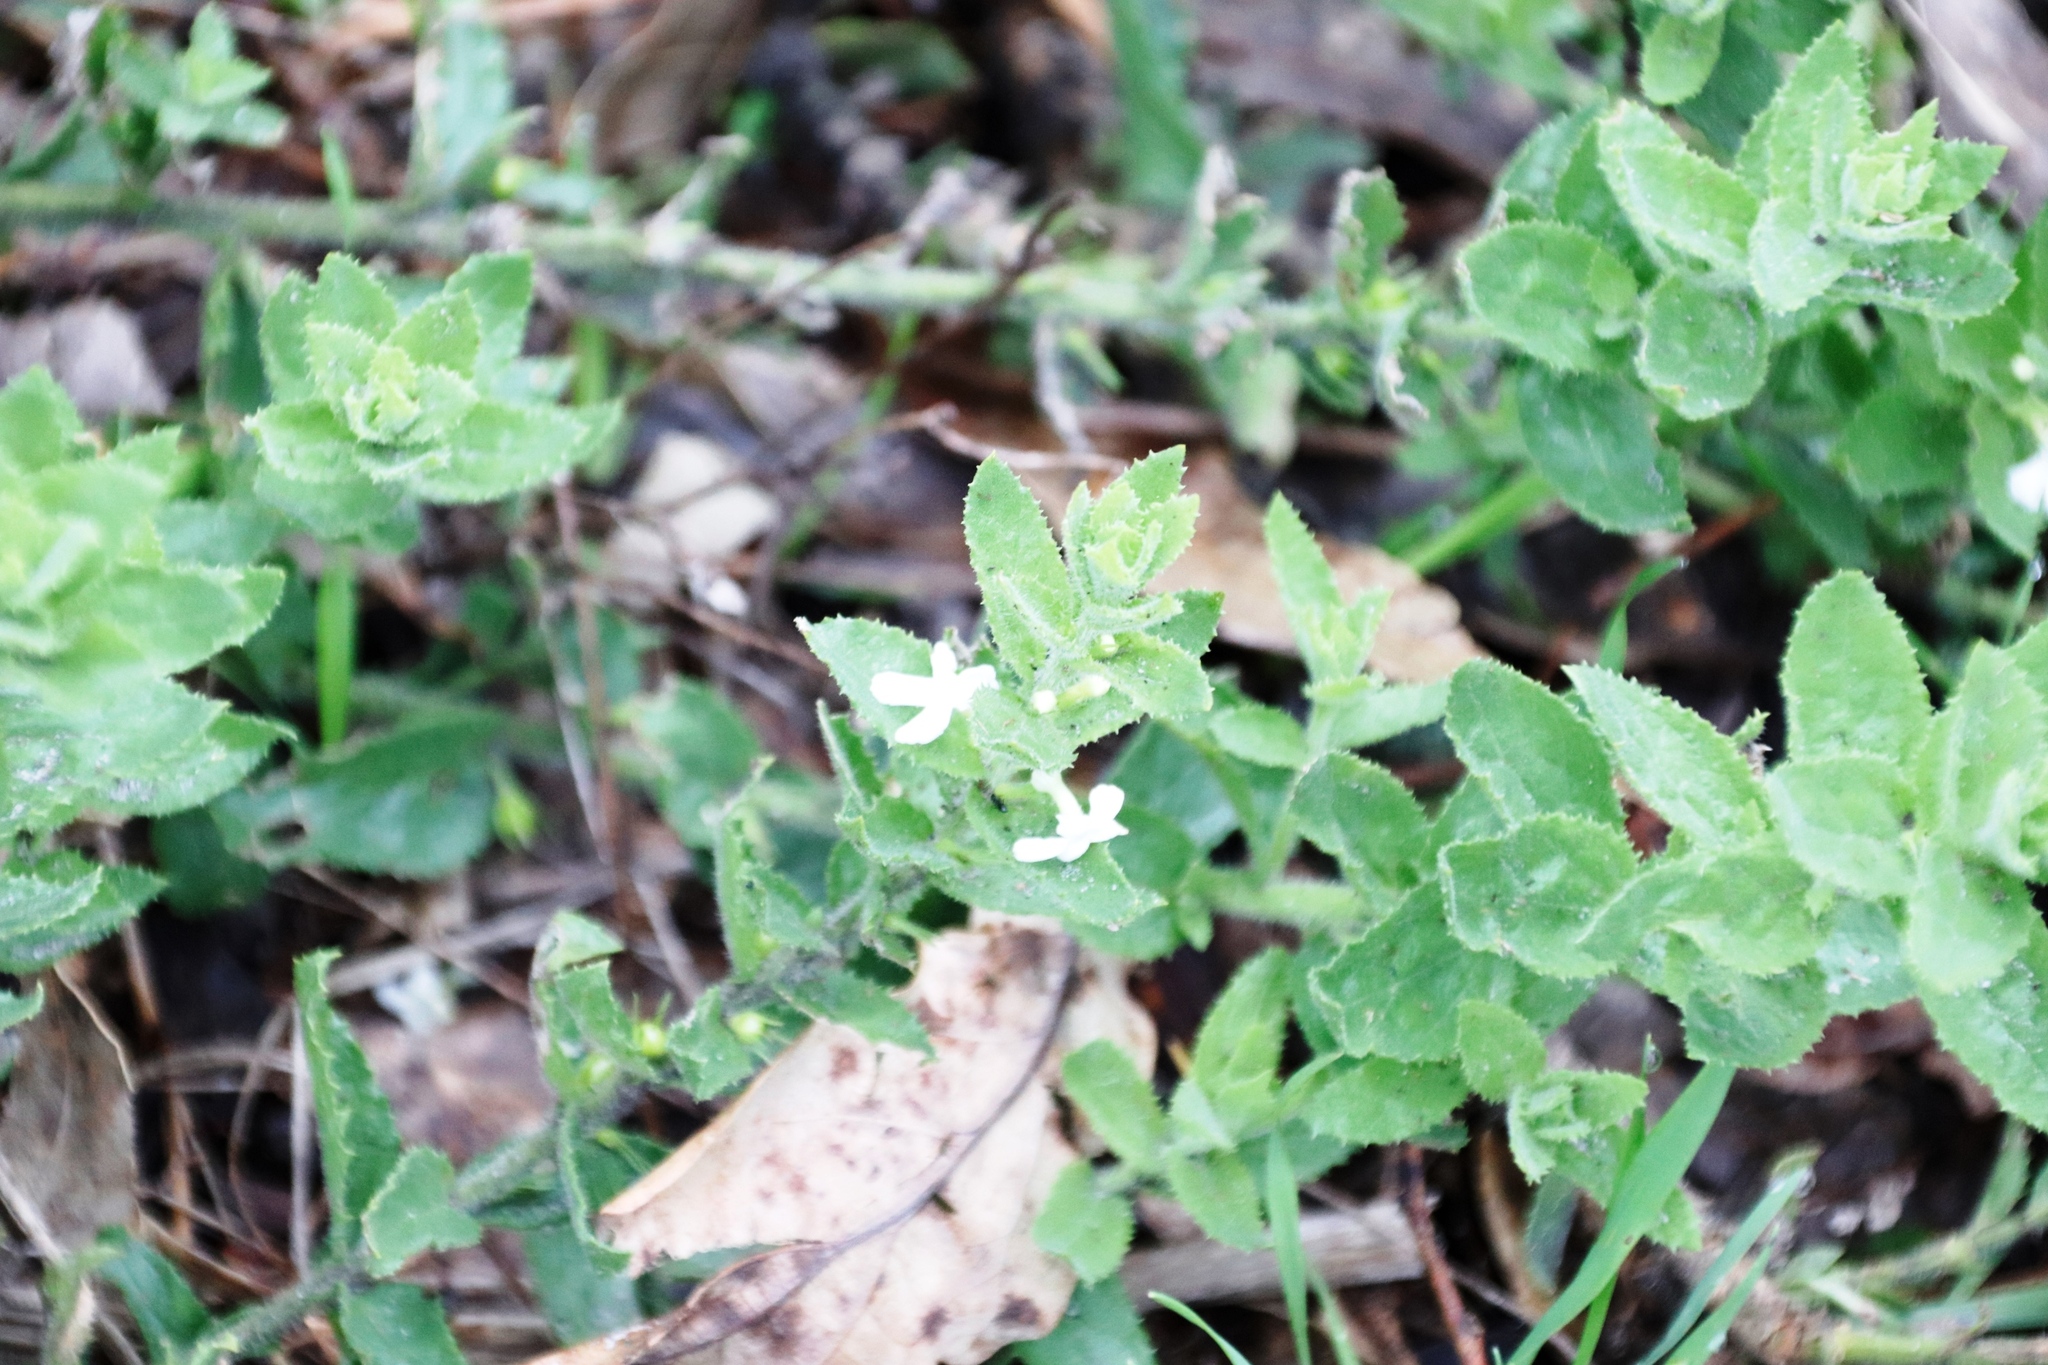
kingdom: Plantae
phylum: Tracheophyta
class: Magnoliopsida
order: Lamiales
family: Scrophulariaceae
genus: Oftia
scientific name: Oftia africana
